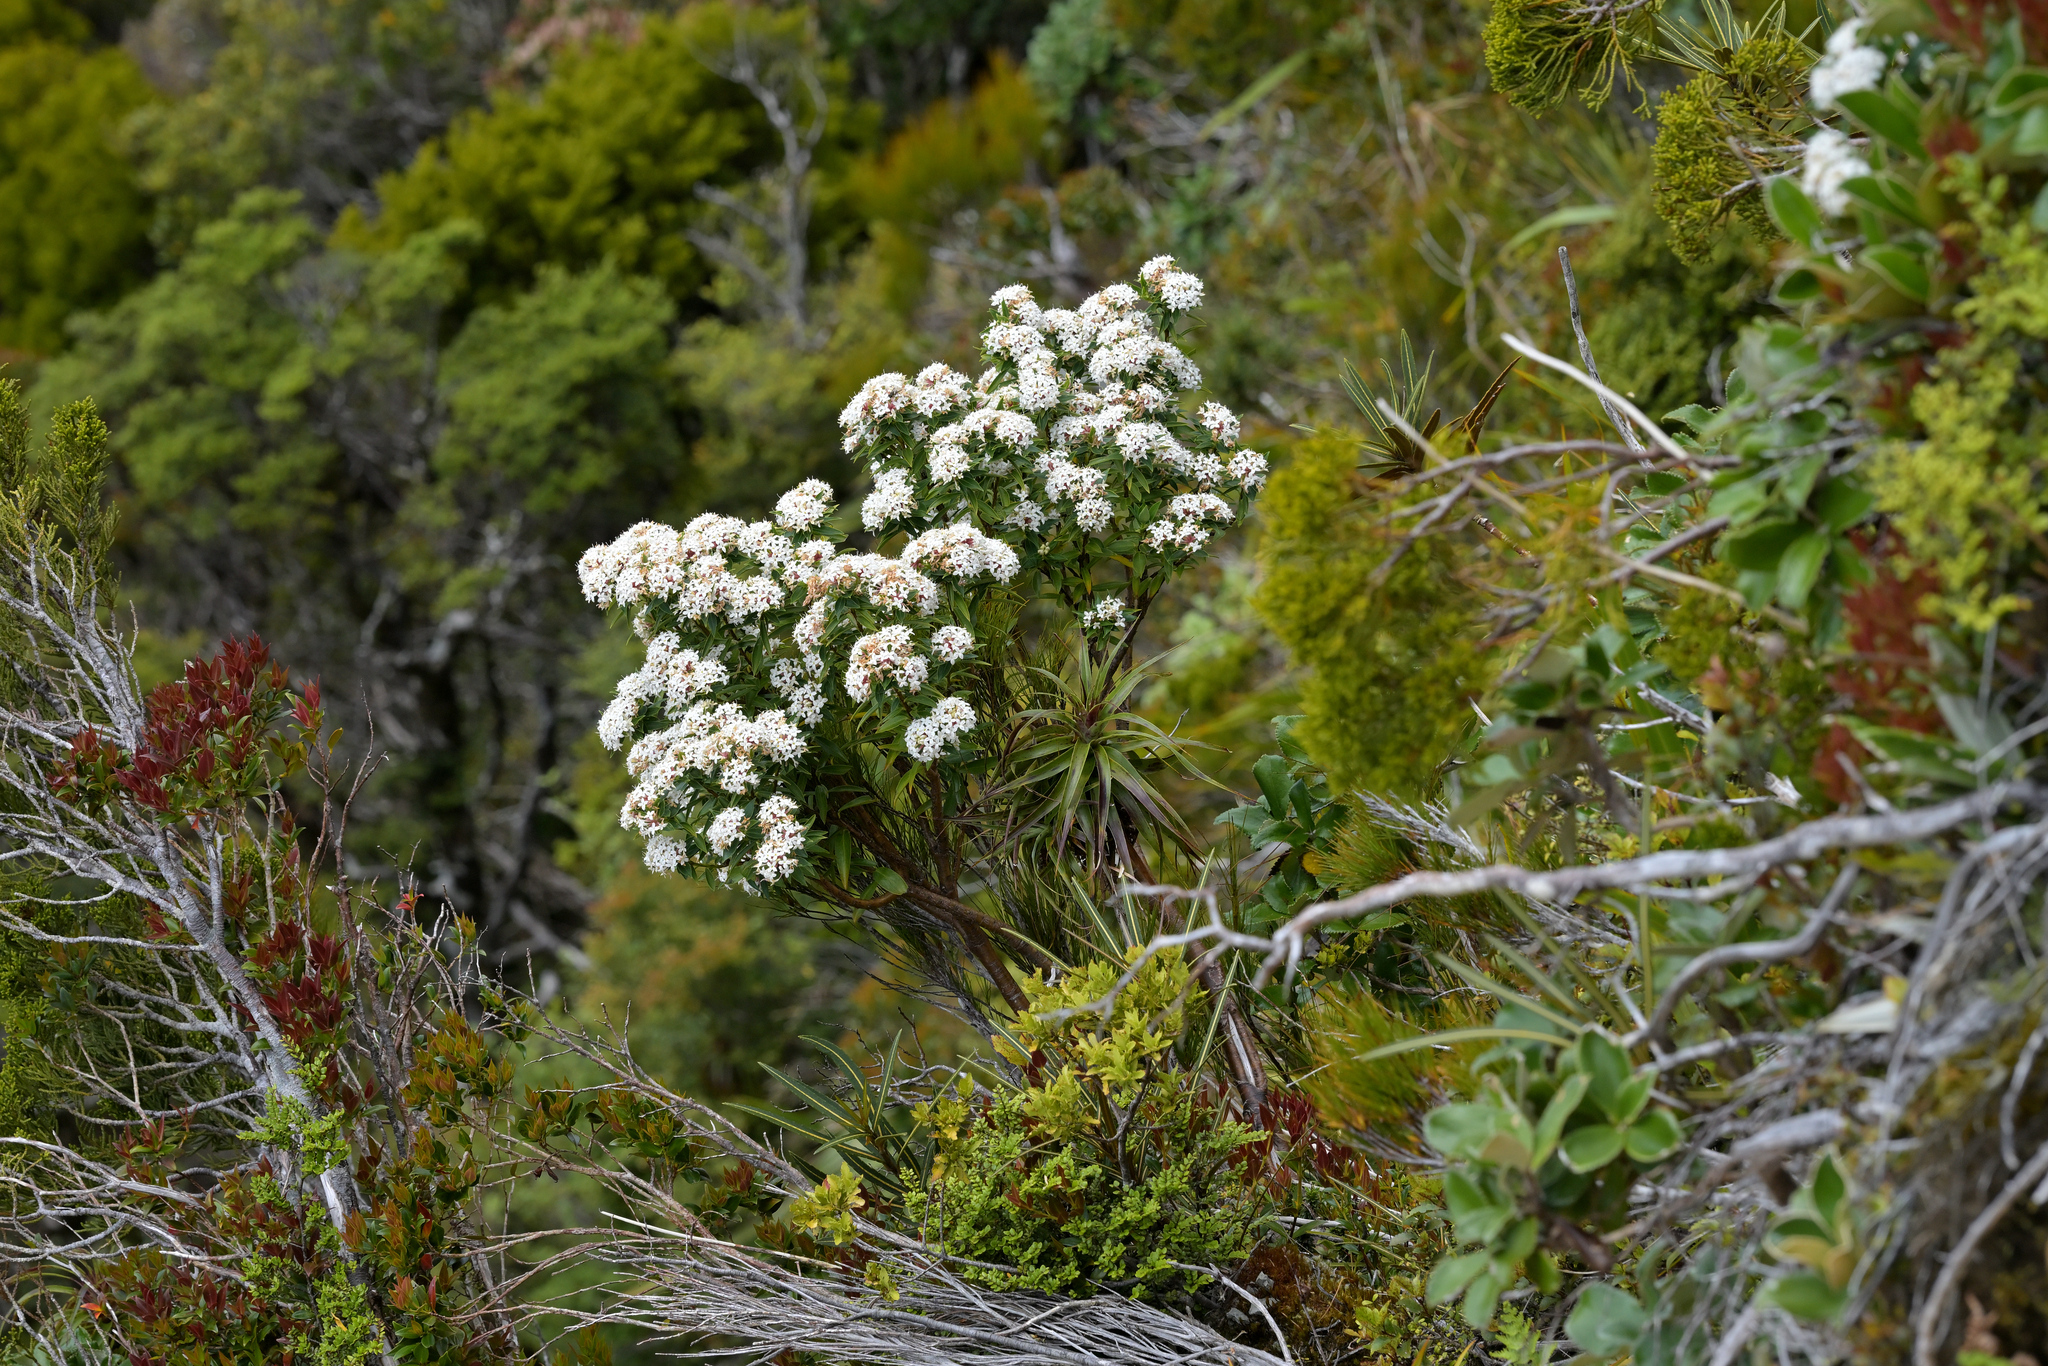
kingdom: Plantae
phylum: Tracheophyta
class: Magnoliopsida
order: Malvales
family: Thymelaeaceae
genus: Pimelea
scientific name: Pimelea longifolia
